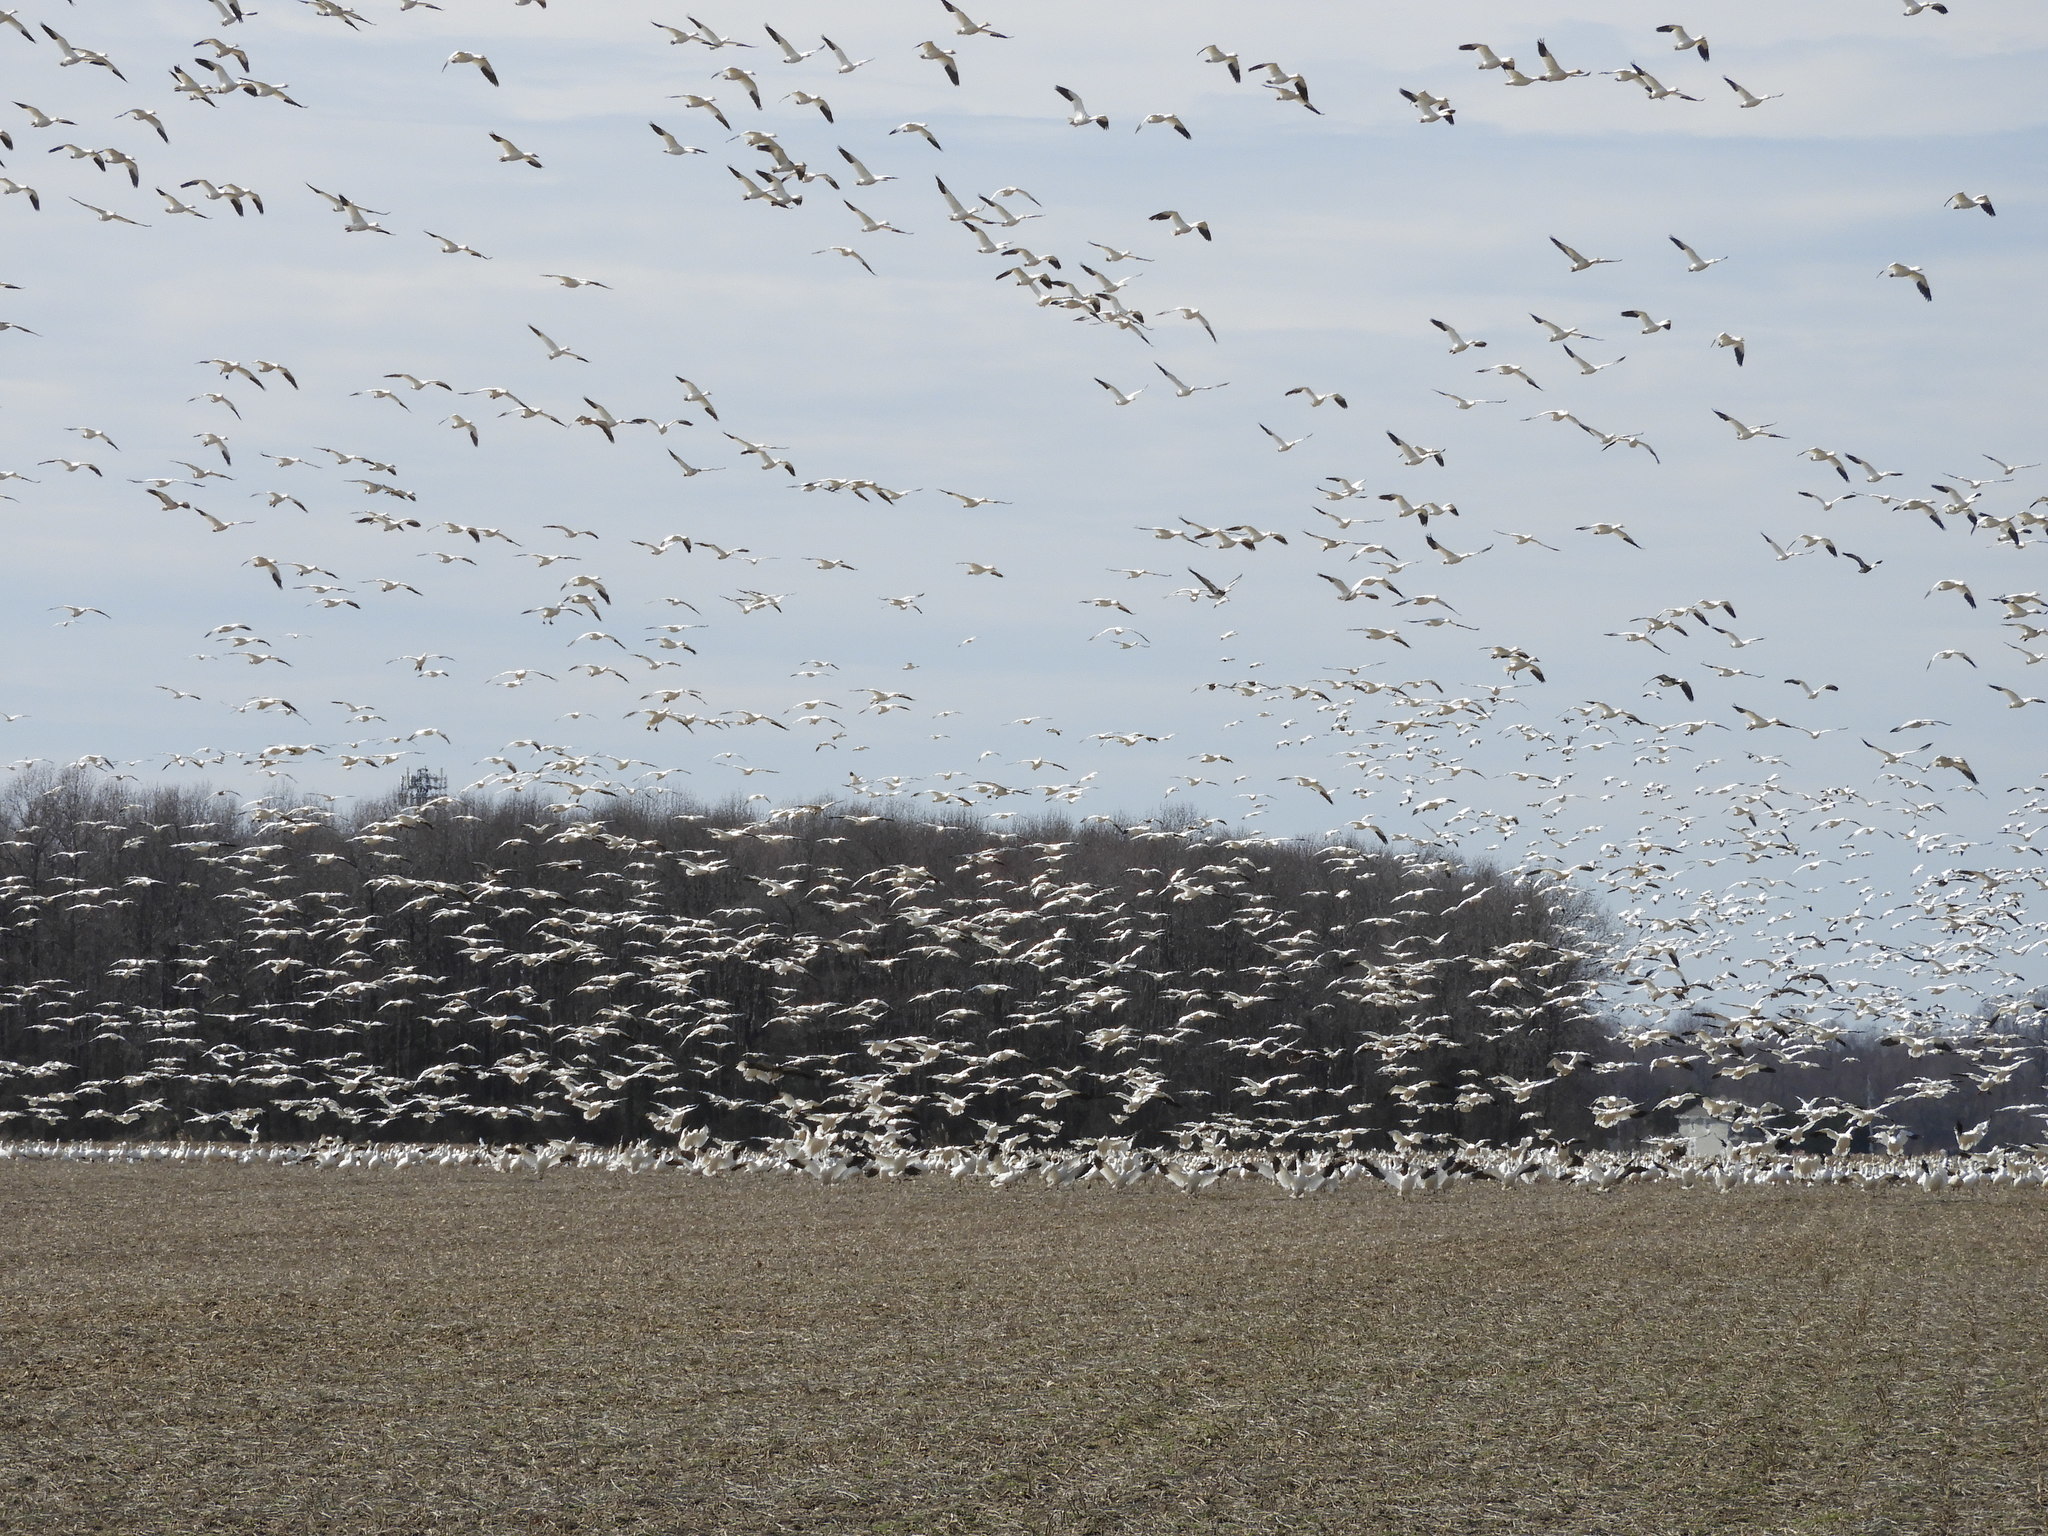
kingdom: Animalia
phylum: Chordata
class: Aves
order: Anseriformes
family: Anatidae
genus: Anser
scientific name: Anser caerulescens
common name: Snow goose
